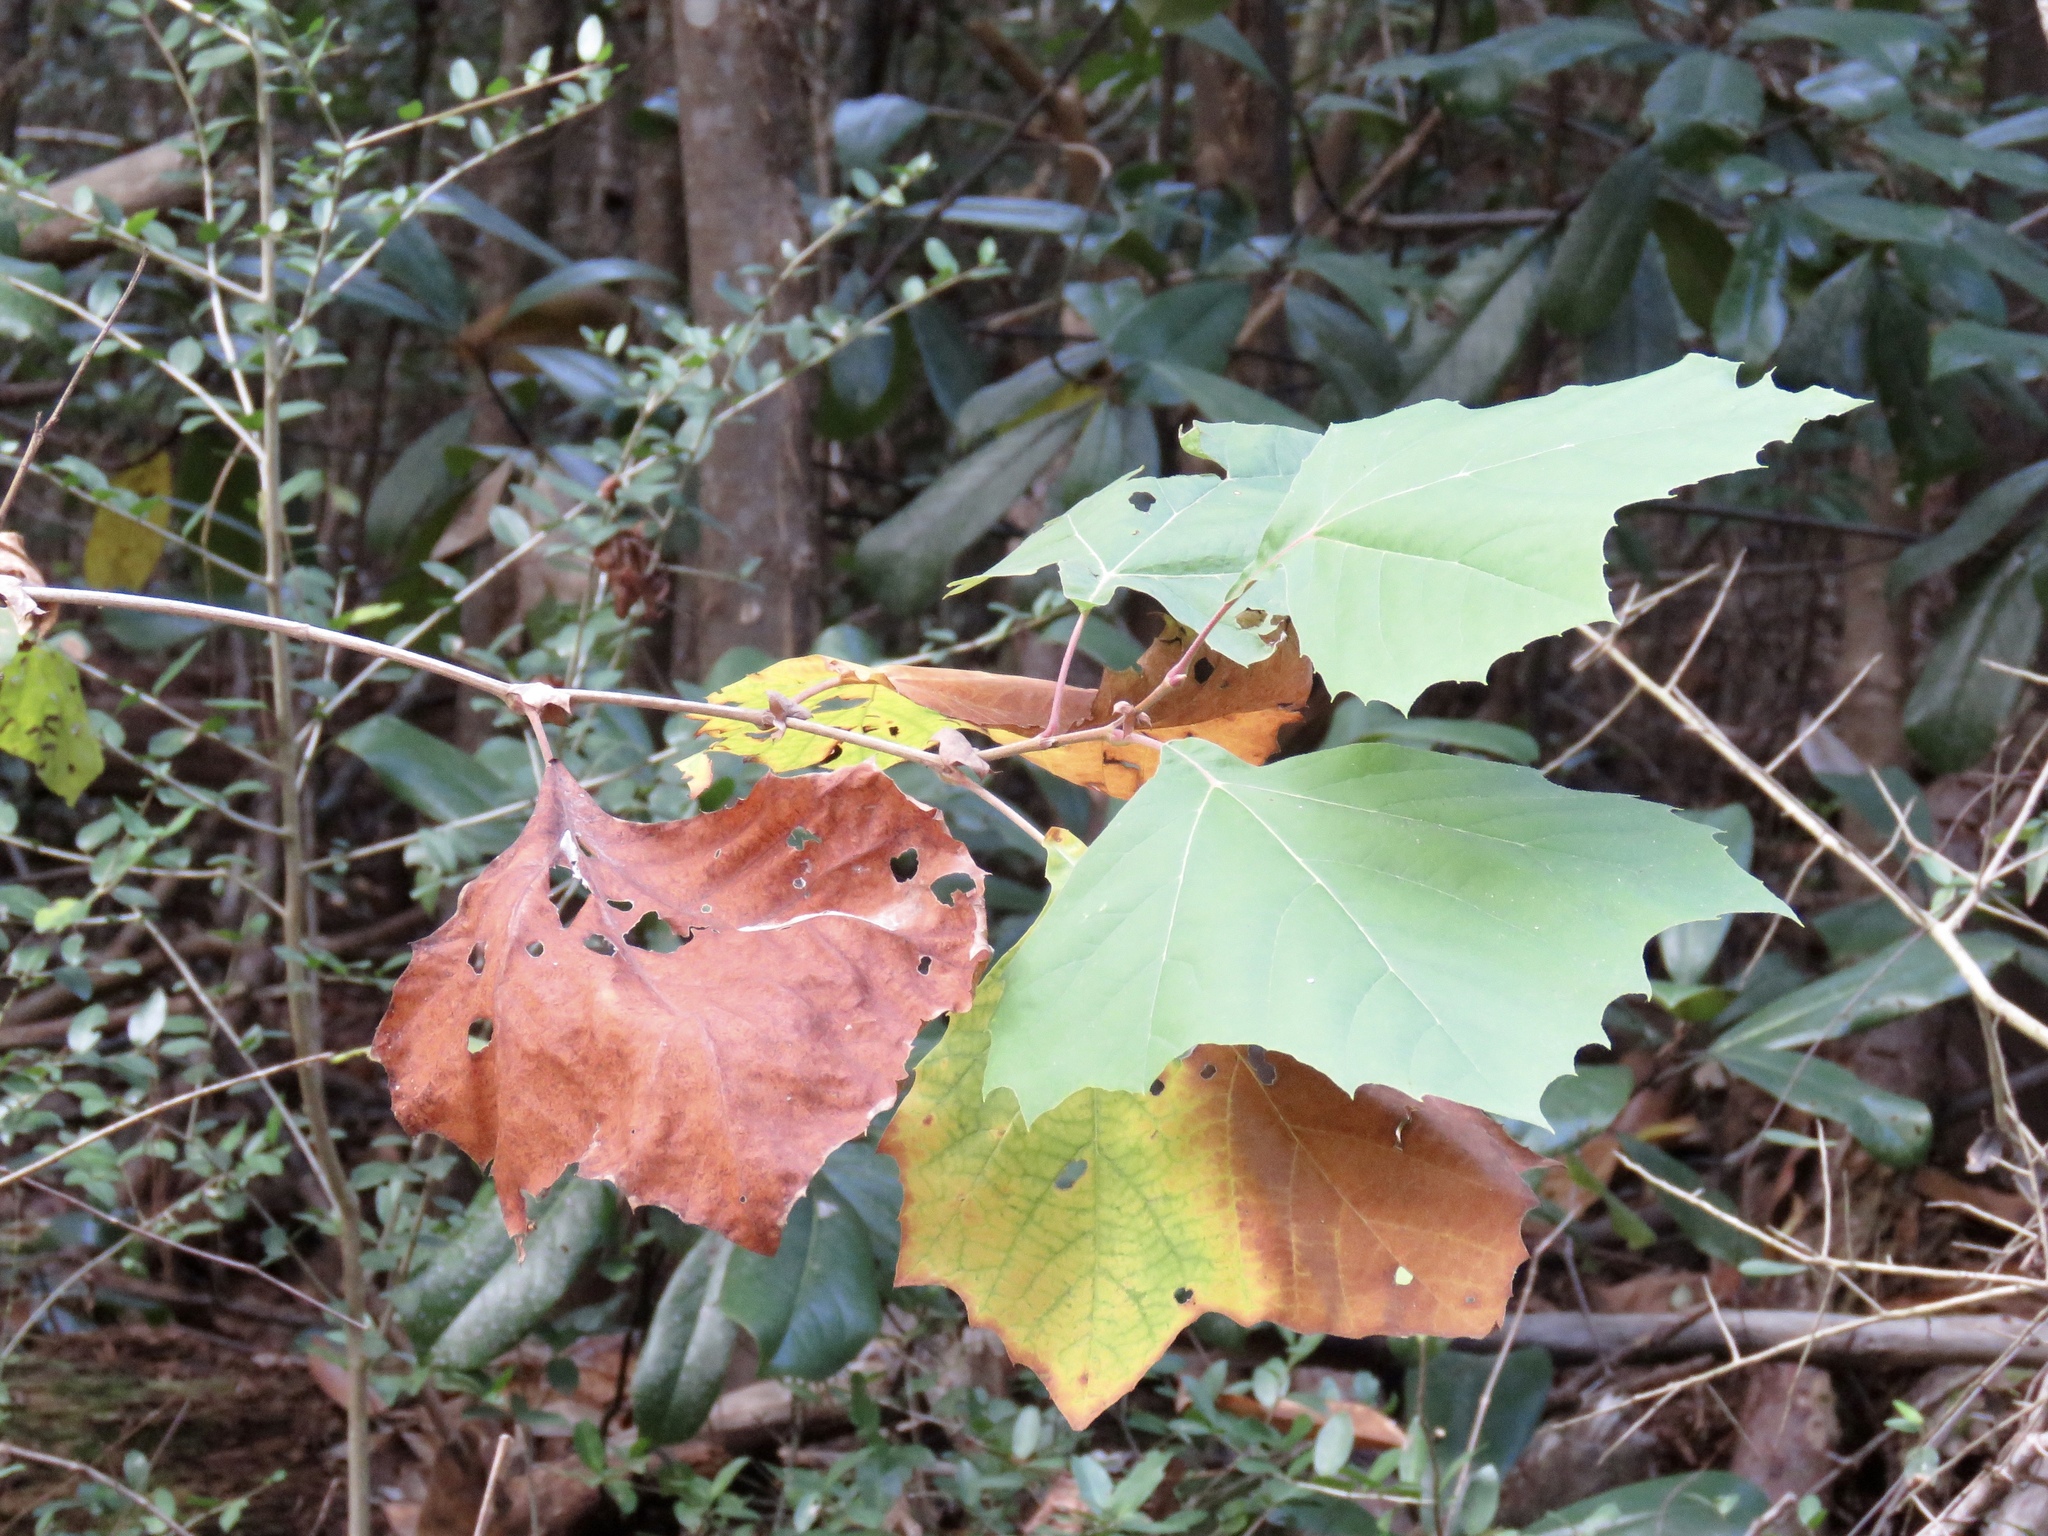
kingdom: Plantae
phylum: Tracheophyta
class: Magnoliopsida
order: Proteales
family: Platanaceae
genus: Platanus
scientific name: Platanus occidentalis
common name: American sycamore
